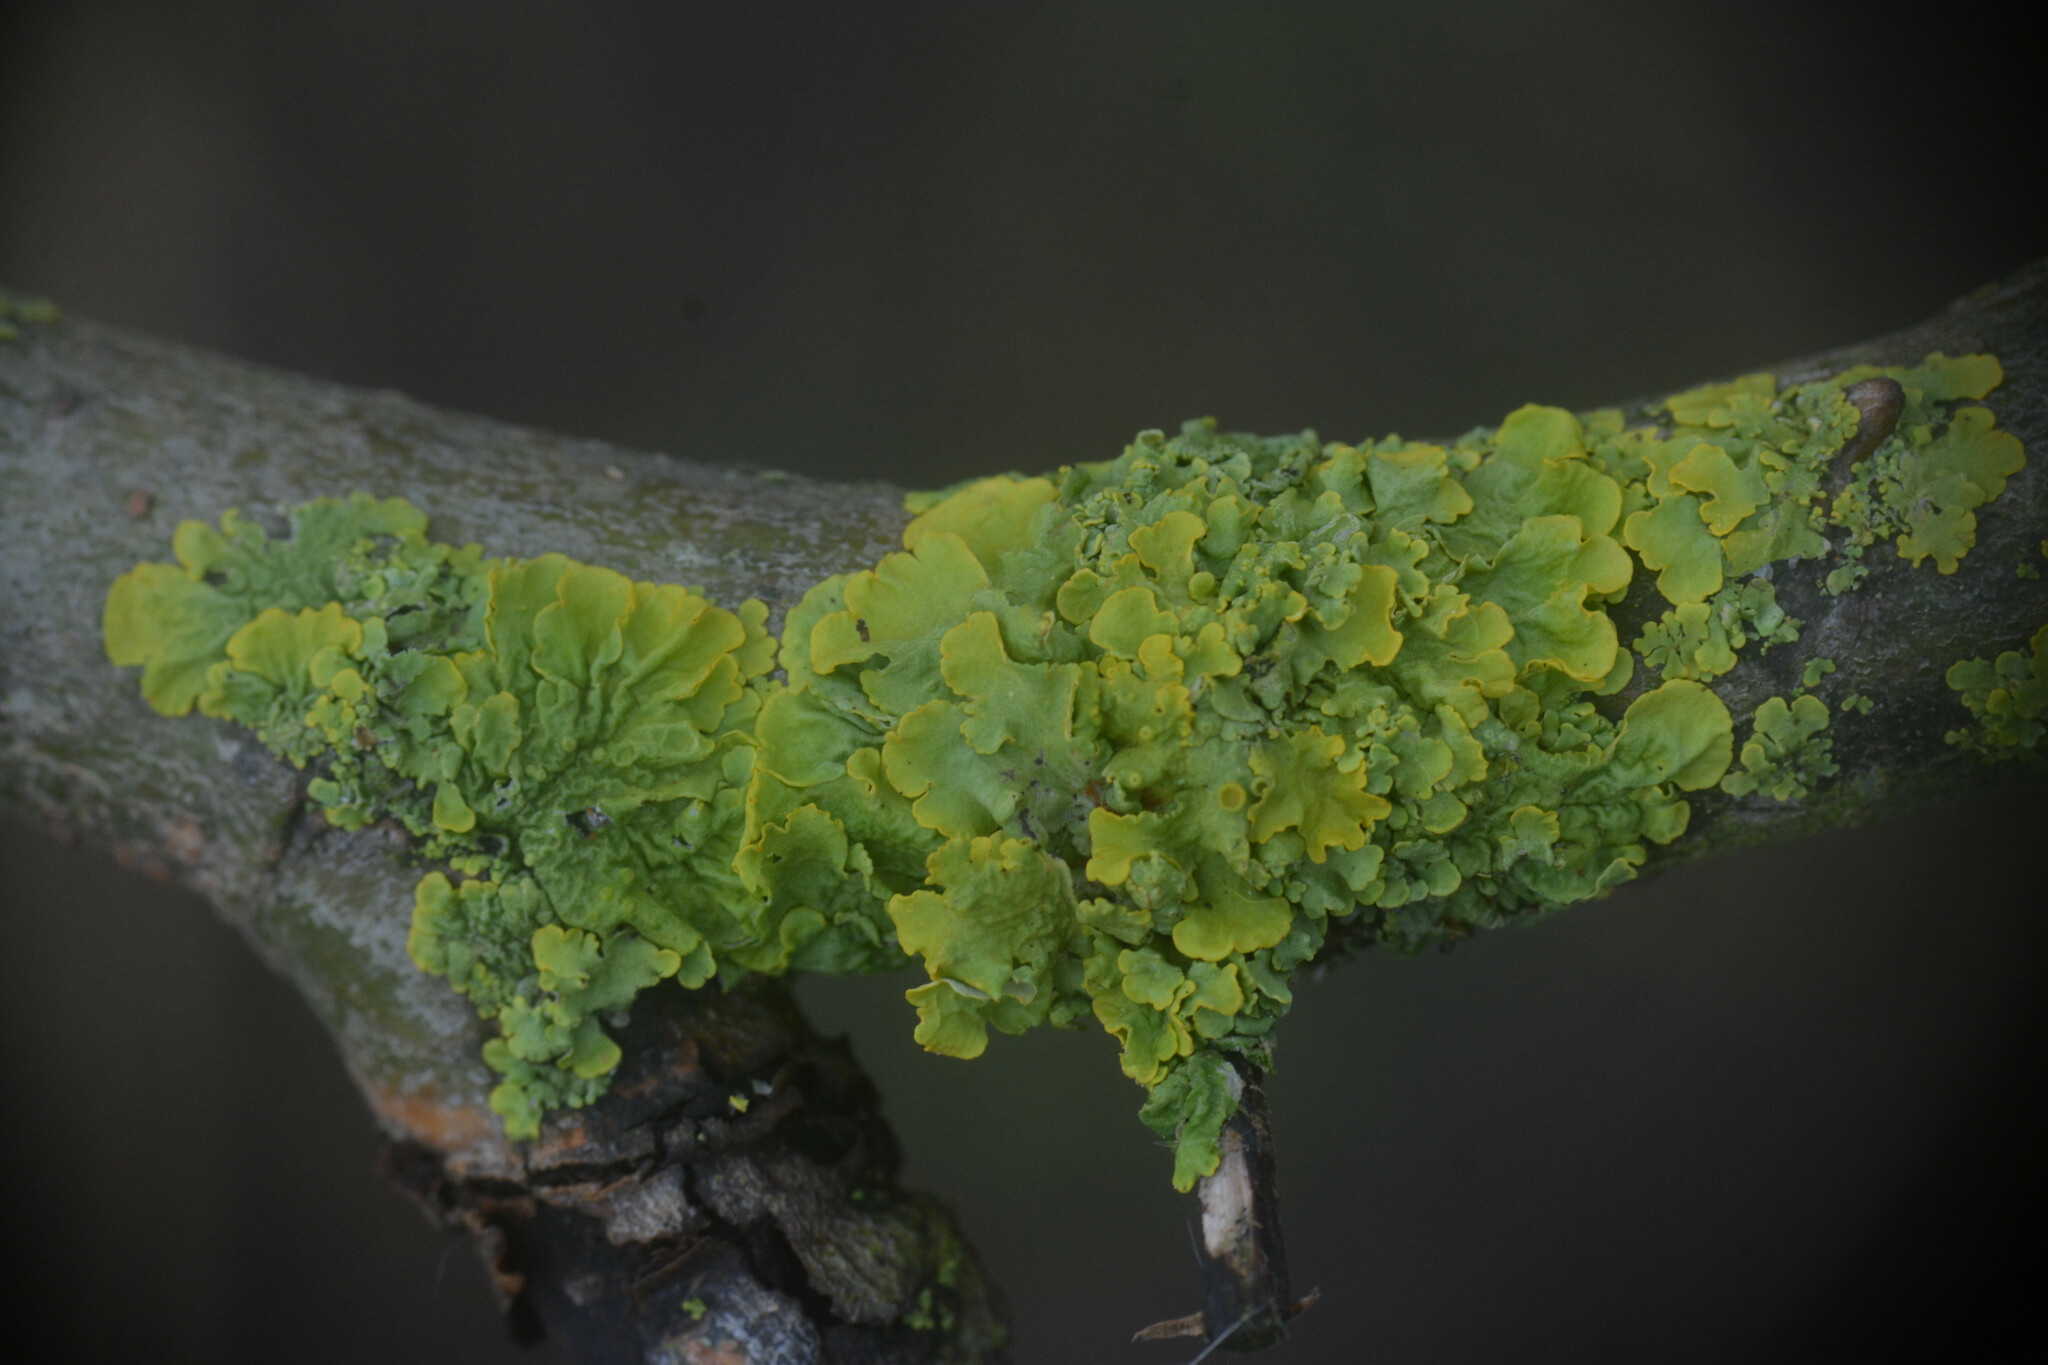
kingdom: Fungi
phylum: Ascomycota
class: Lecanoromycetes
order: Teloschistales
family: Teloschistaceae
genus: Xanthoria
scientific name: Xanthoria parietina
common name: Common orange lichen
